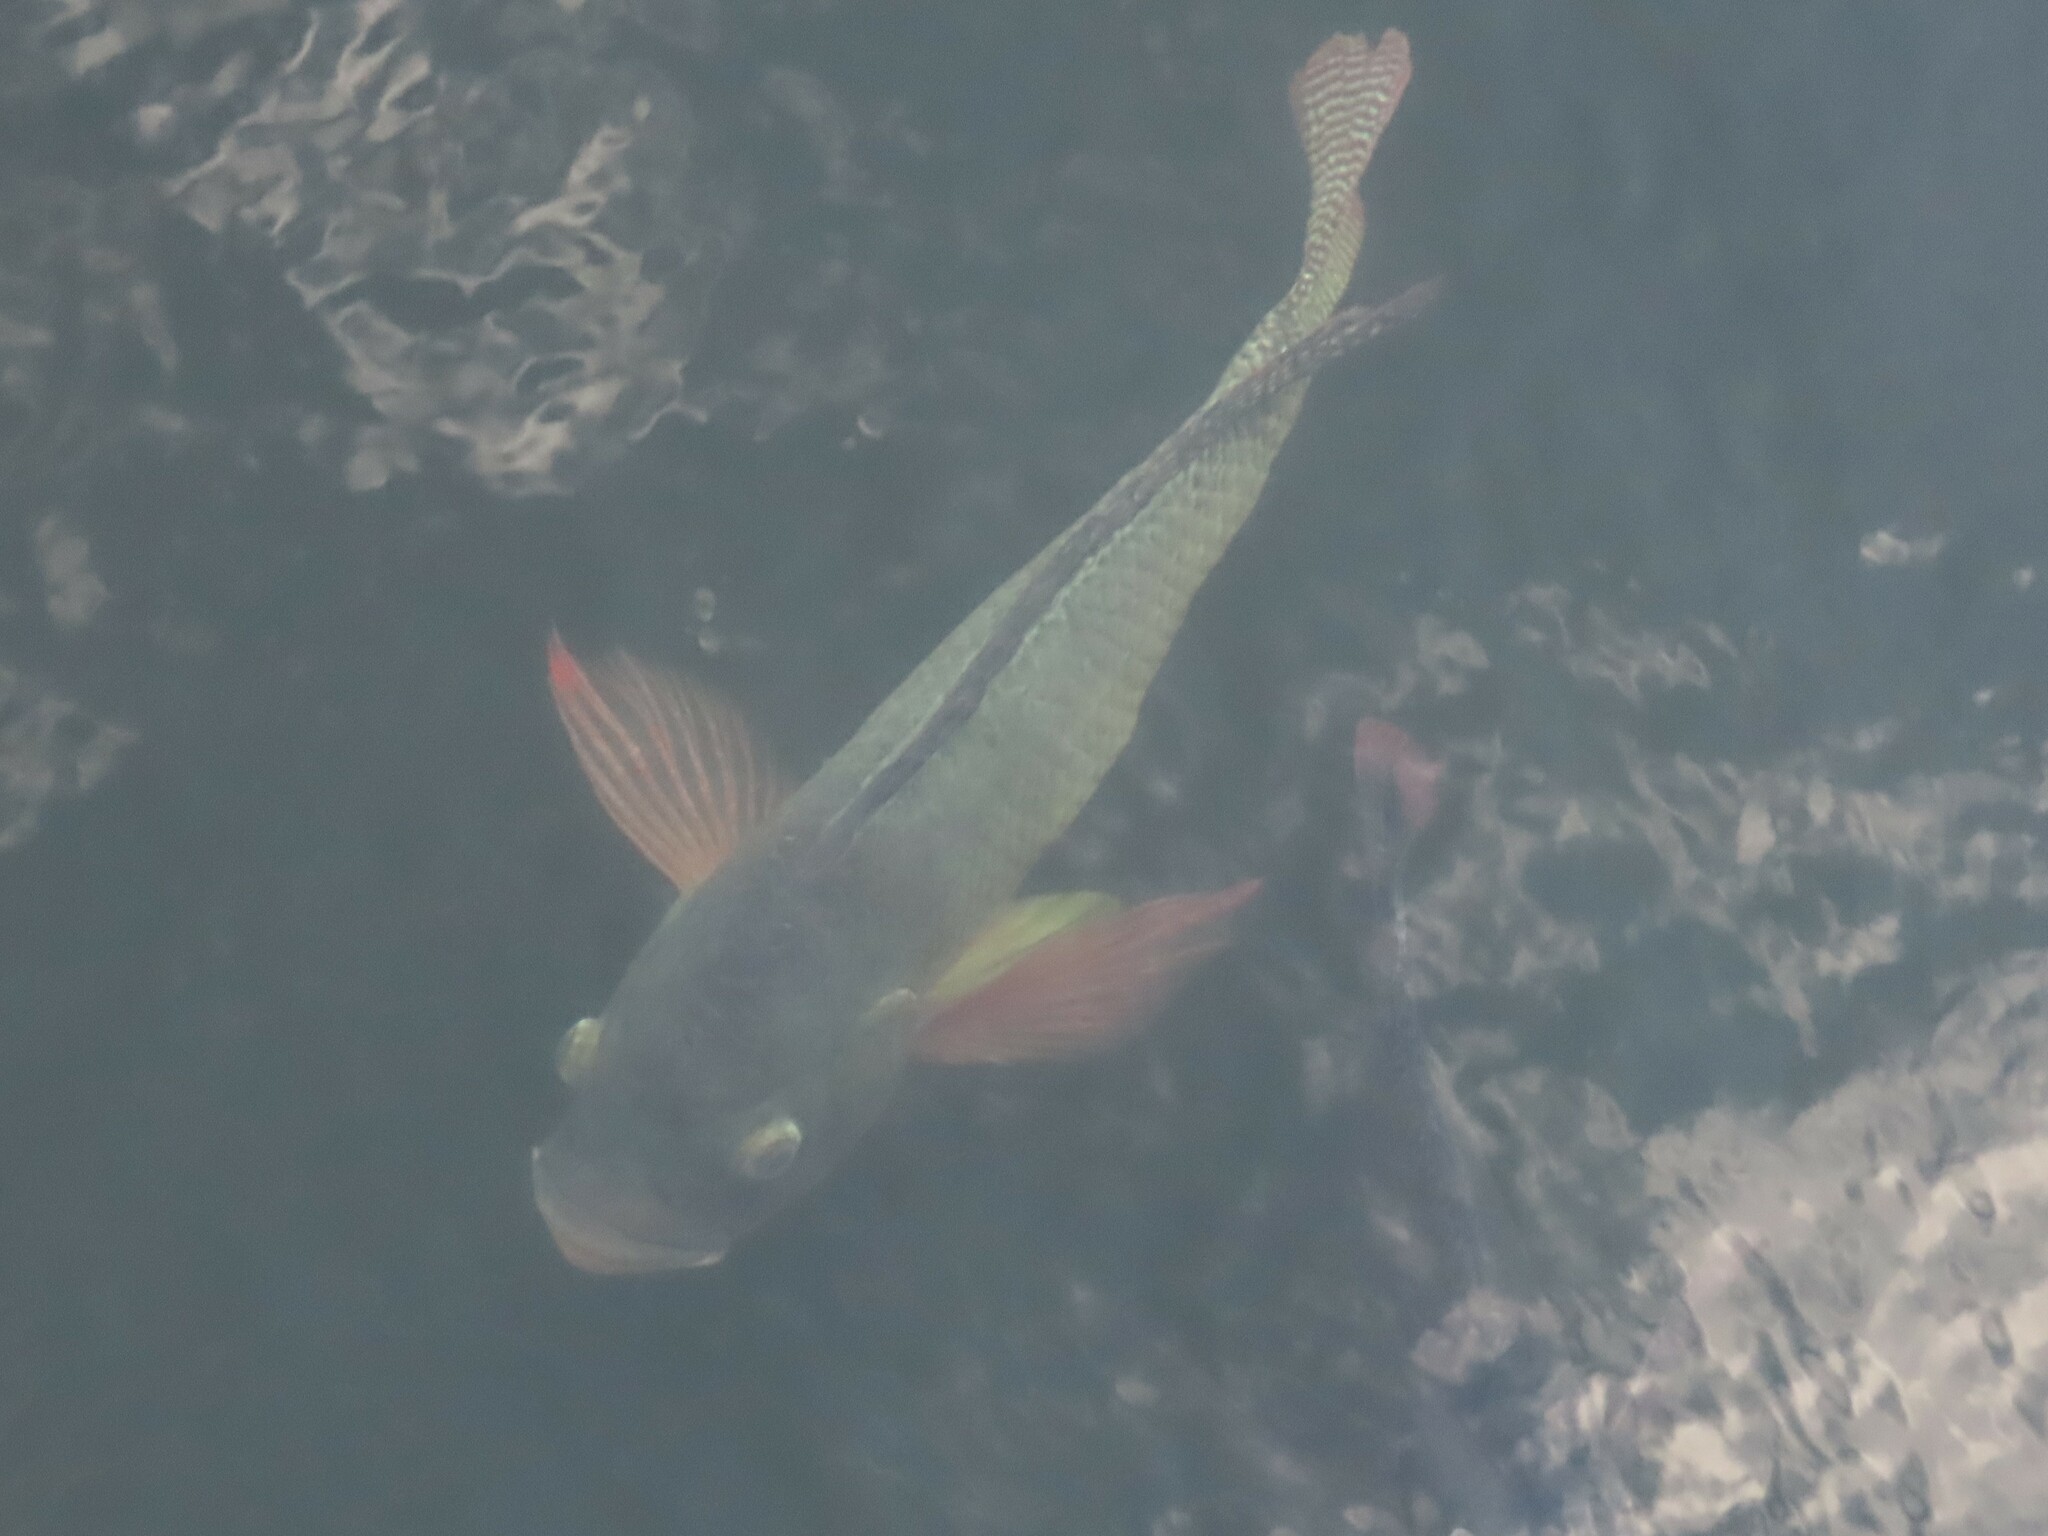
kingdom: Animalia
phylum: Chordata
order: Perciformes
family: Cichlidae
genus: Oreochromis
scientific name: Oreochromis aureus
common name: Blue tilapia
